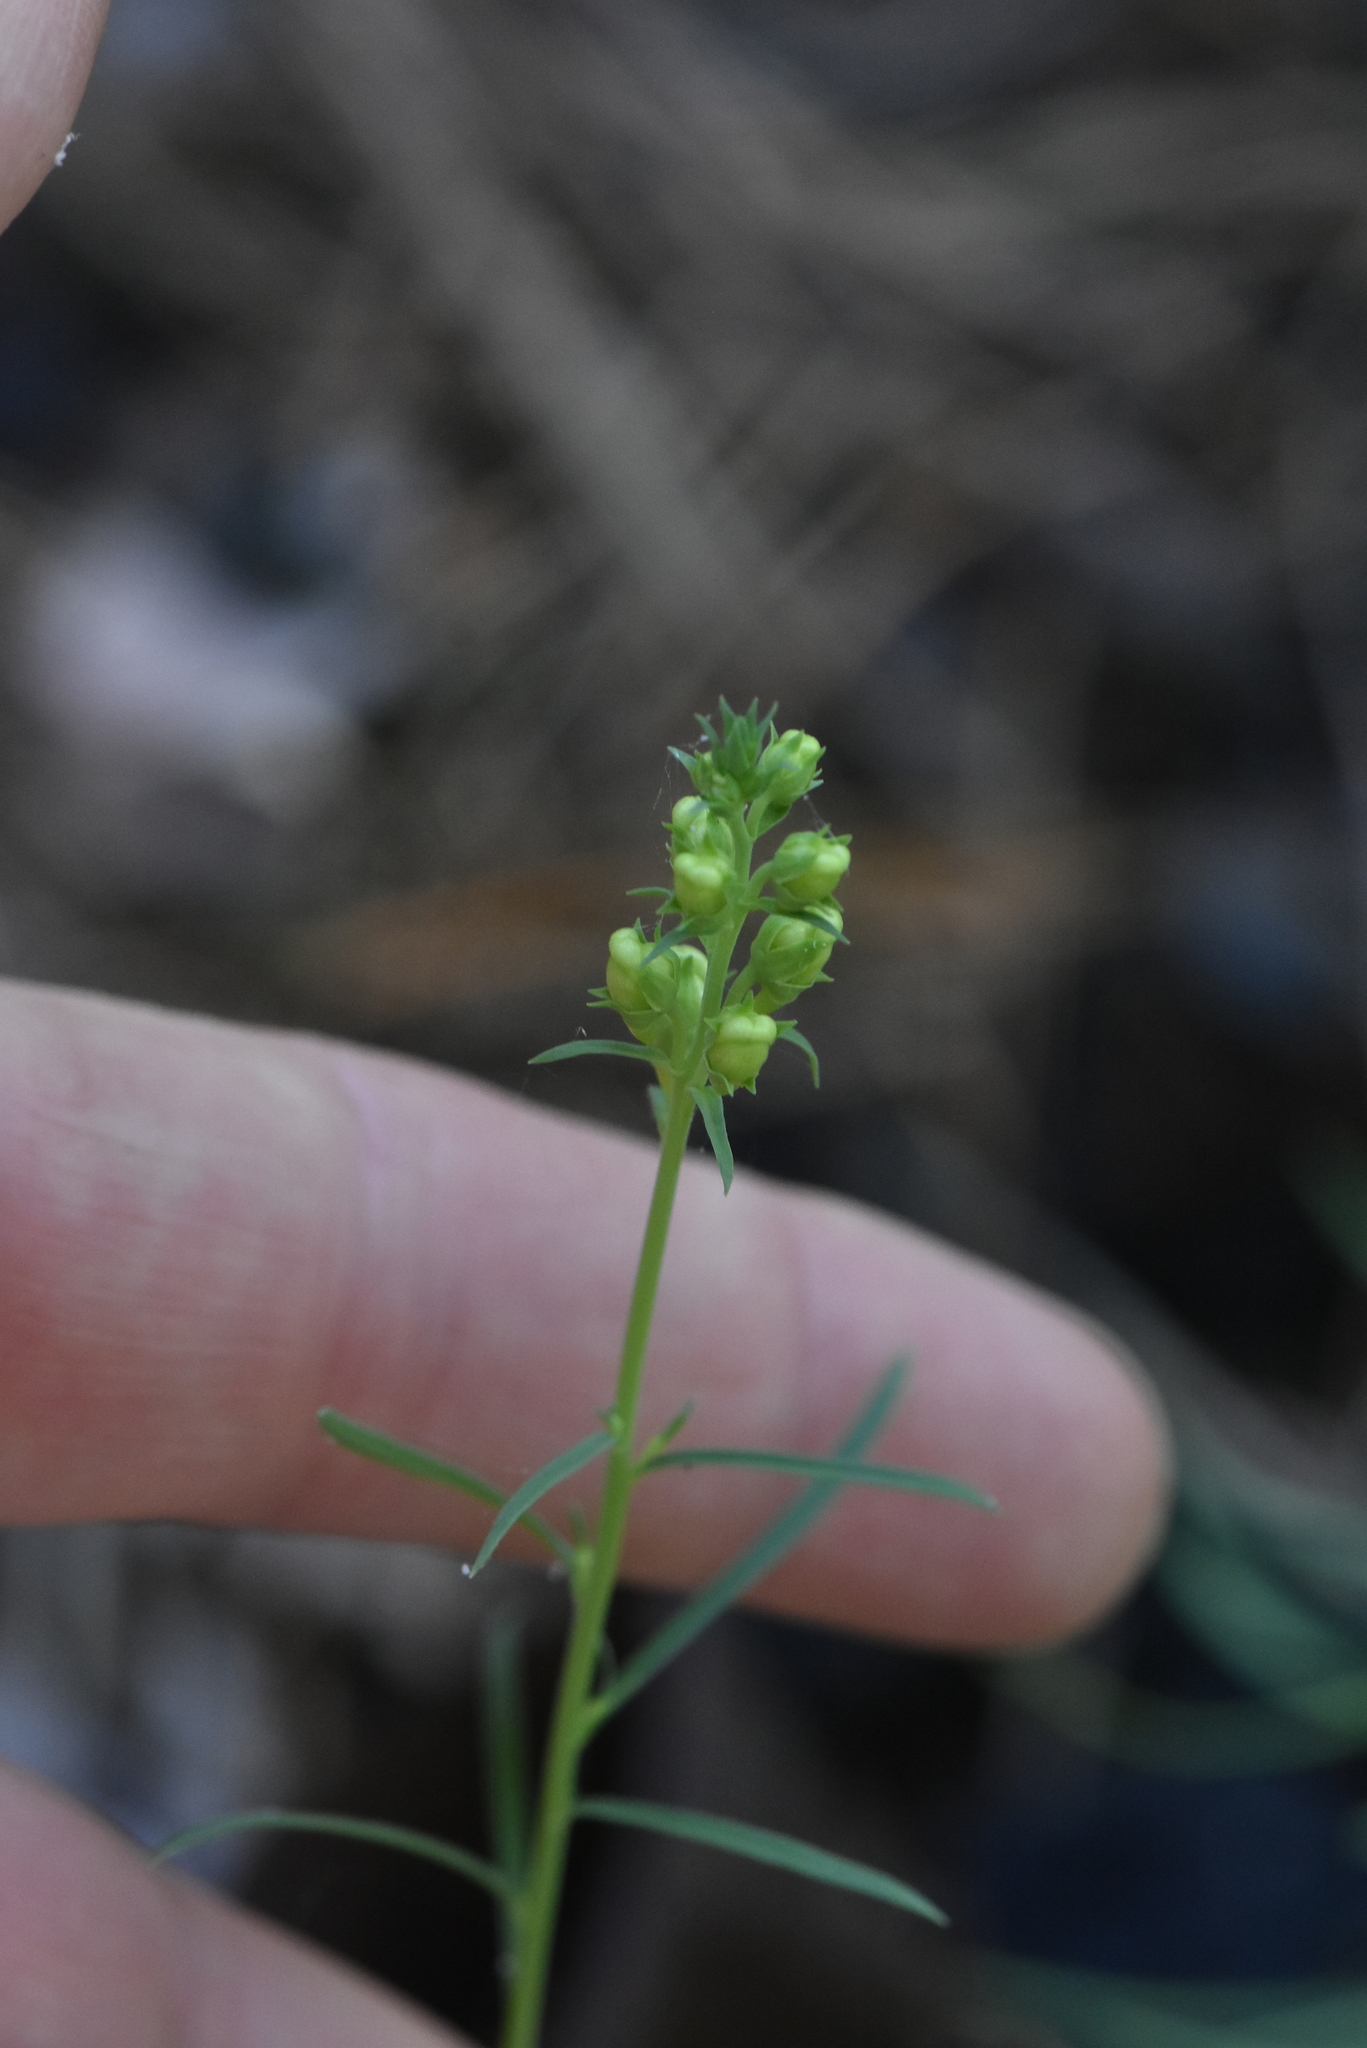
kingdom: Plantae
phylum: Tracheophyta
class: Magnoliopsida
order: Lamiales
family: Plantaginaceae
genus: Linaria
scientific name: Linaria vulgaris
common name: Butter and eggs
